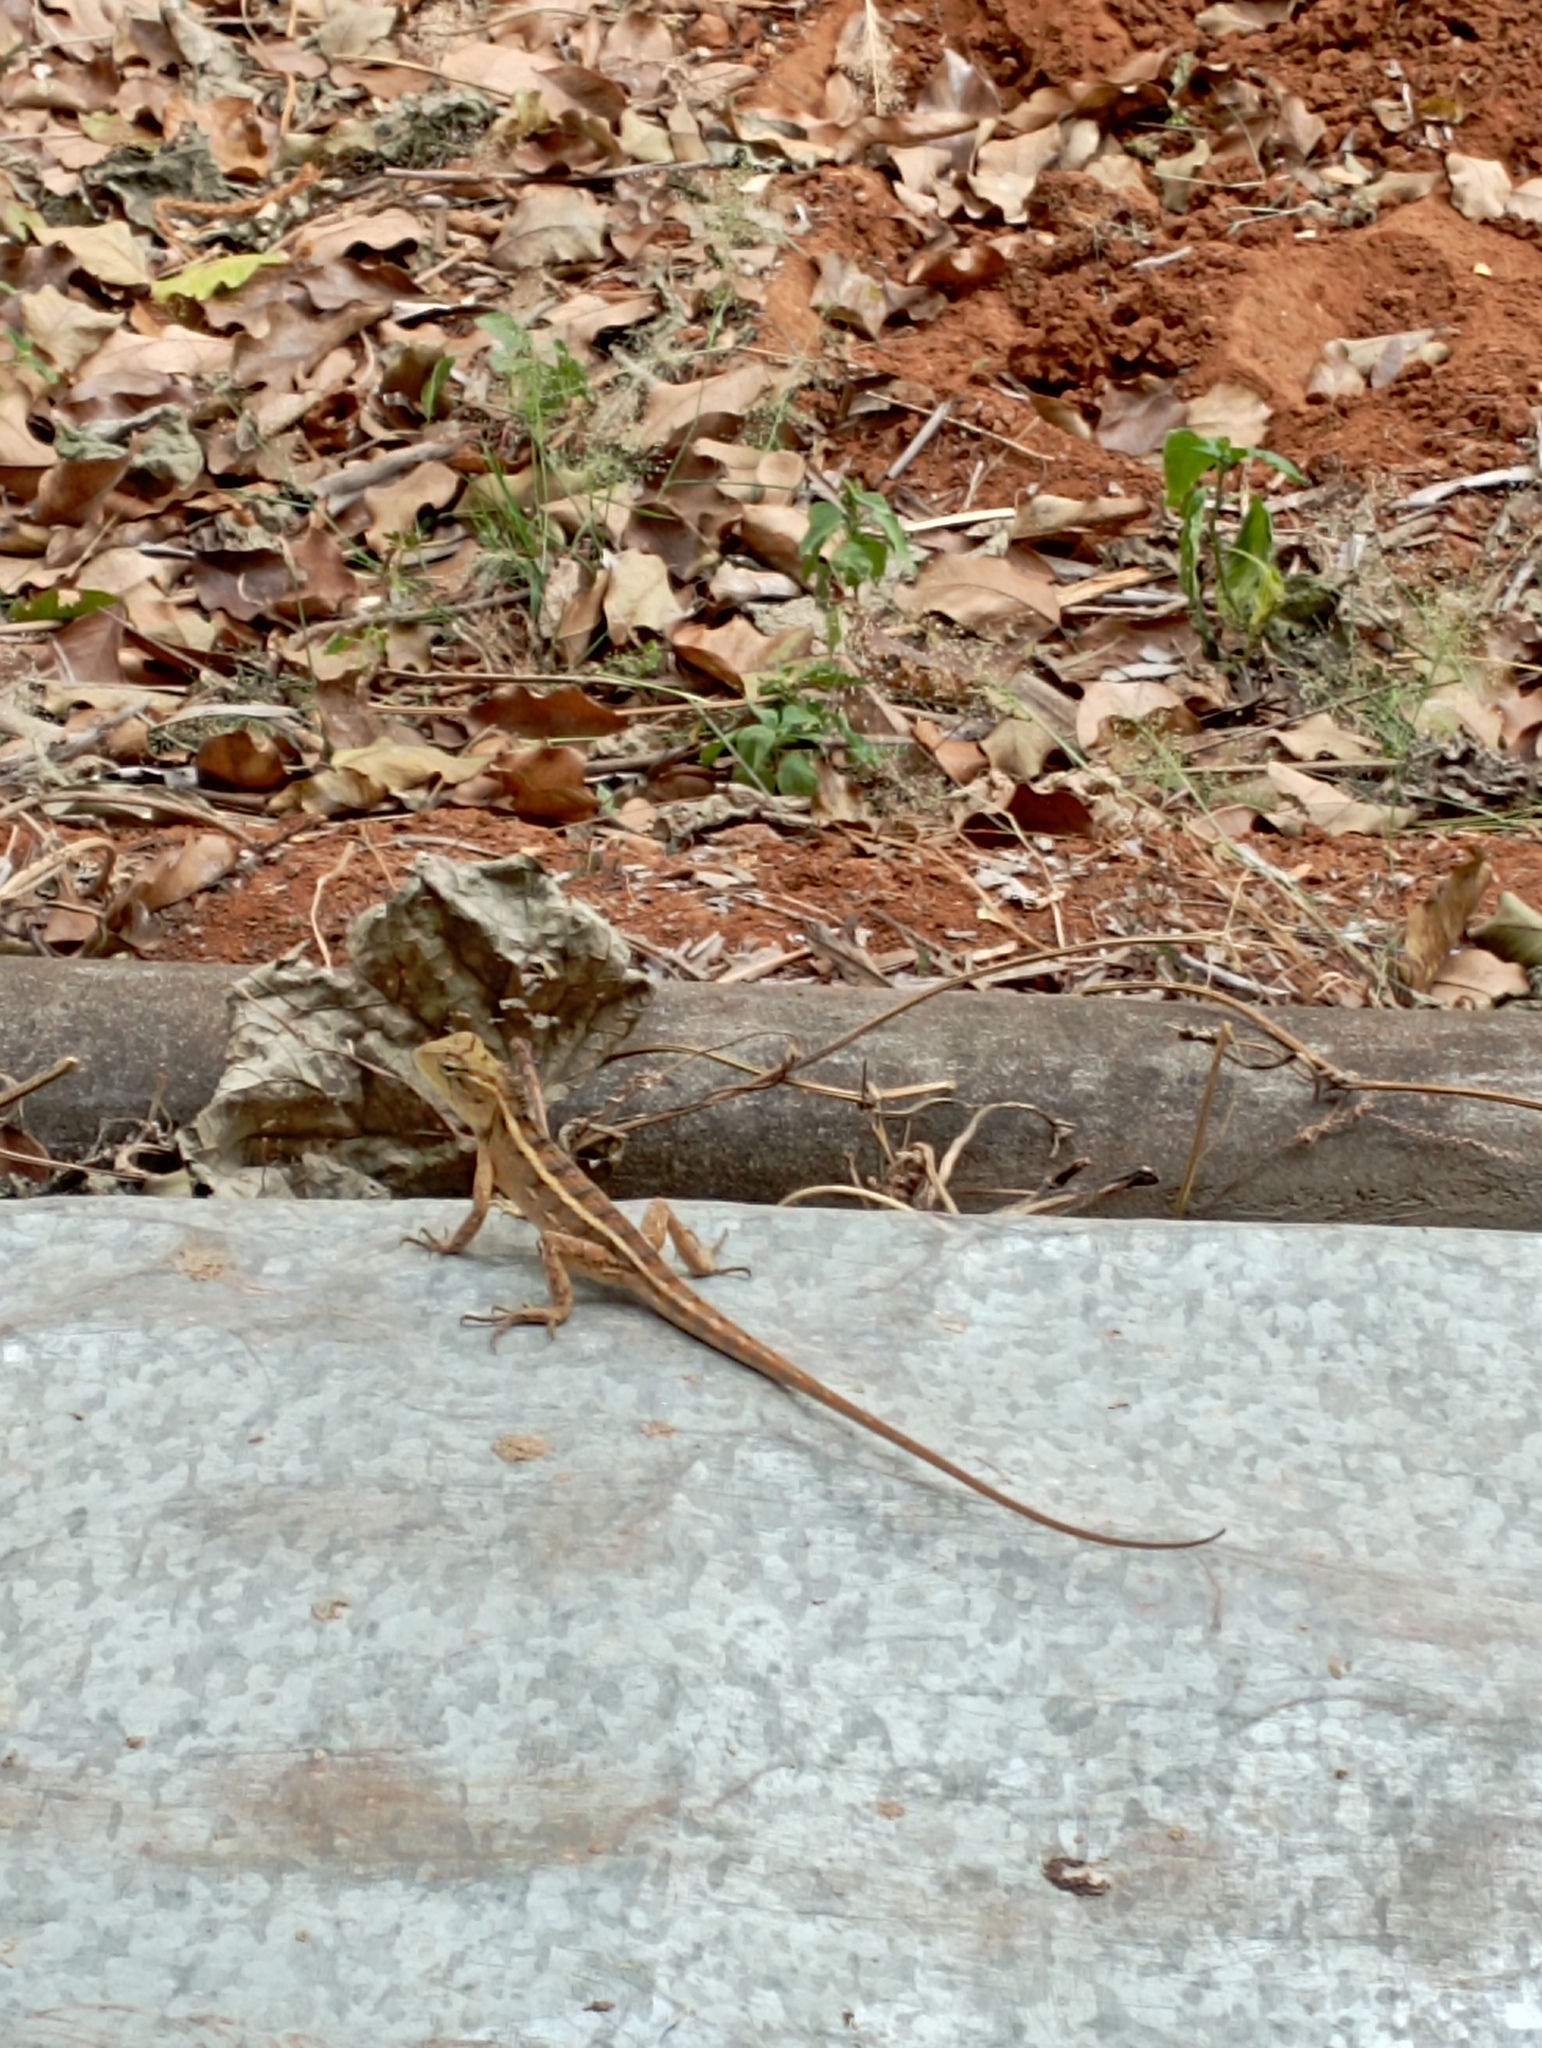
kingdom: Animalia
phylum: Chordata
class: Squamata
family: Agamidae
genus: Calotes
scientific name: Calotes versicolor
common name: Oriental garden lizard
